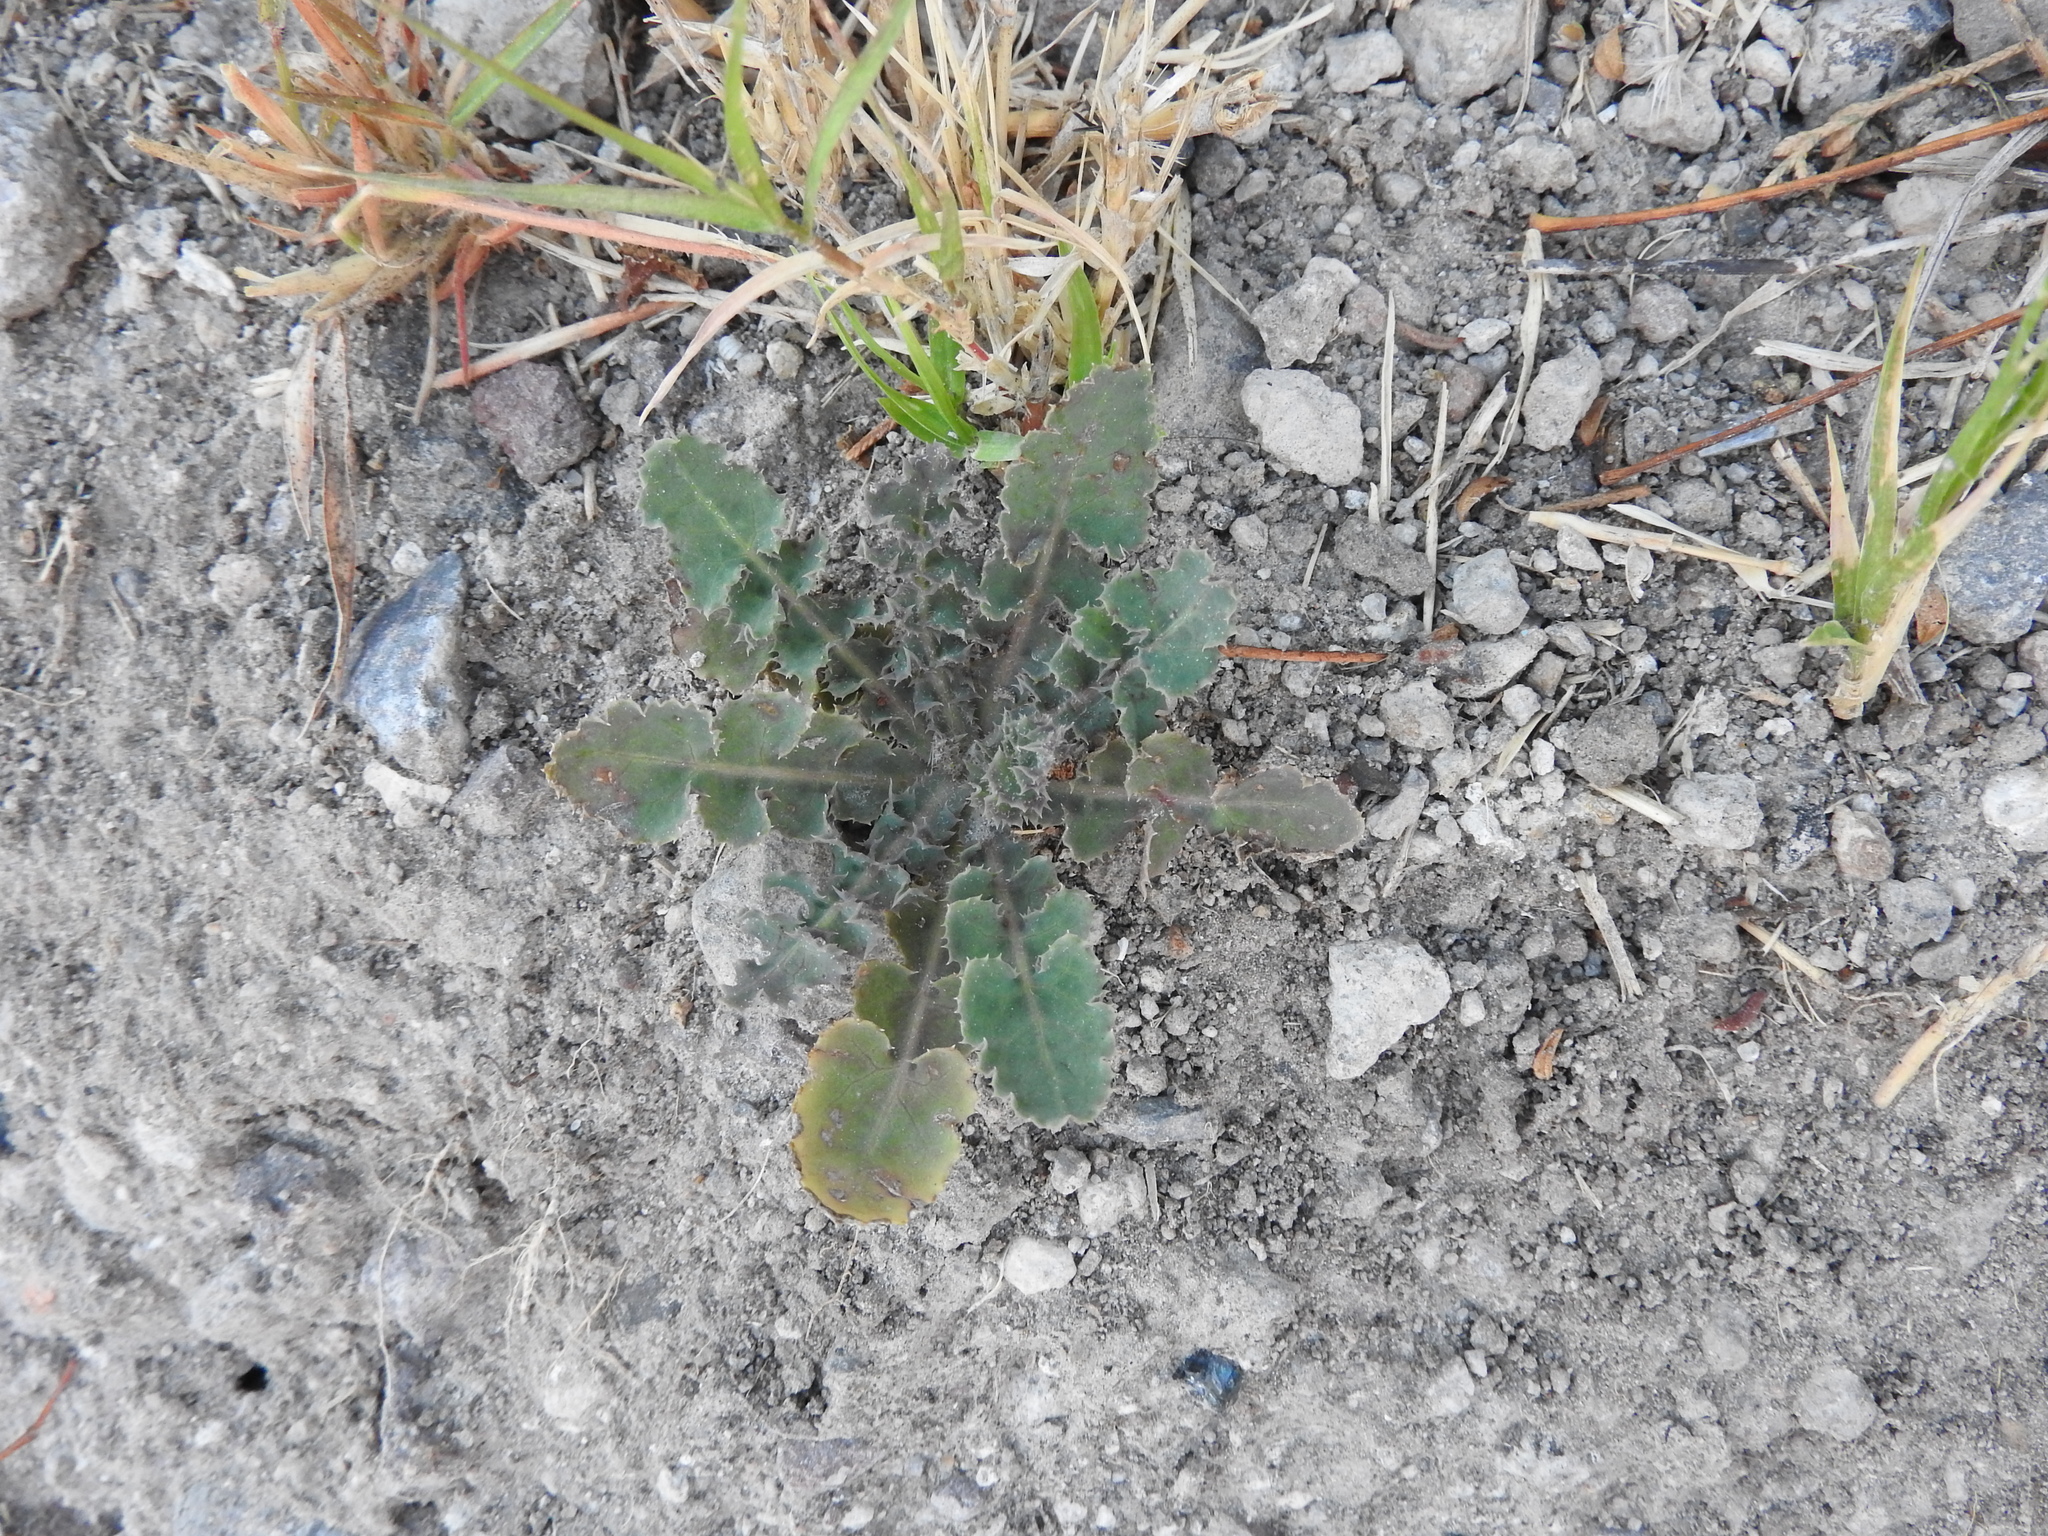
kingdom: Plantae
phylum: Tracheophyta
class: Magnoliopsida
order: Asterales
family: Asteraceae
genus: Sonchus
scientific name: Sonchus oleraceus
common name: Common sowthistle
